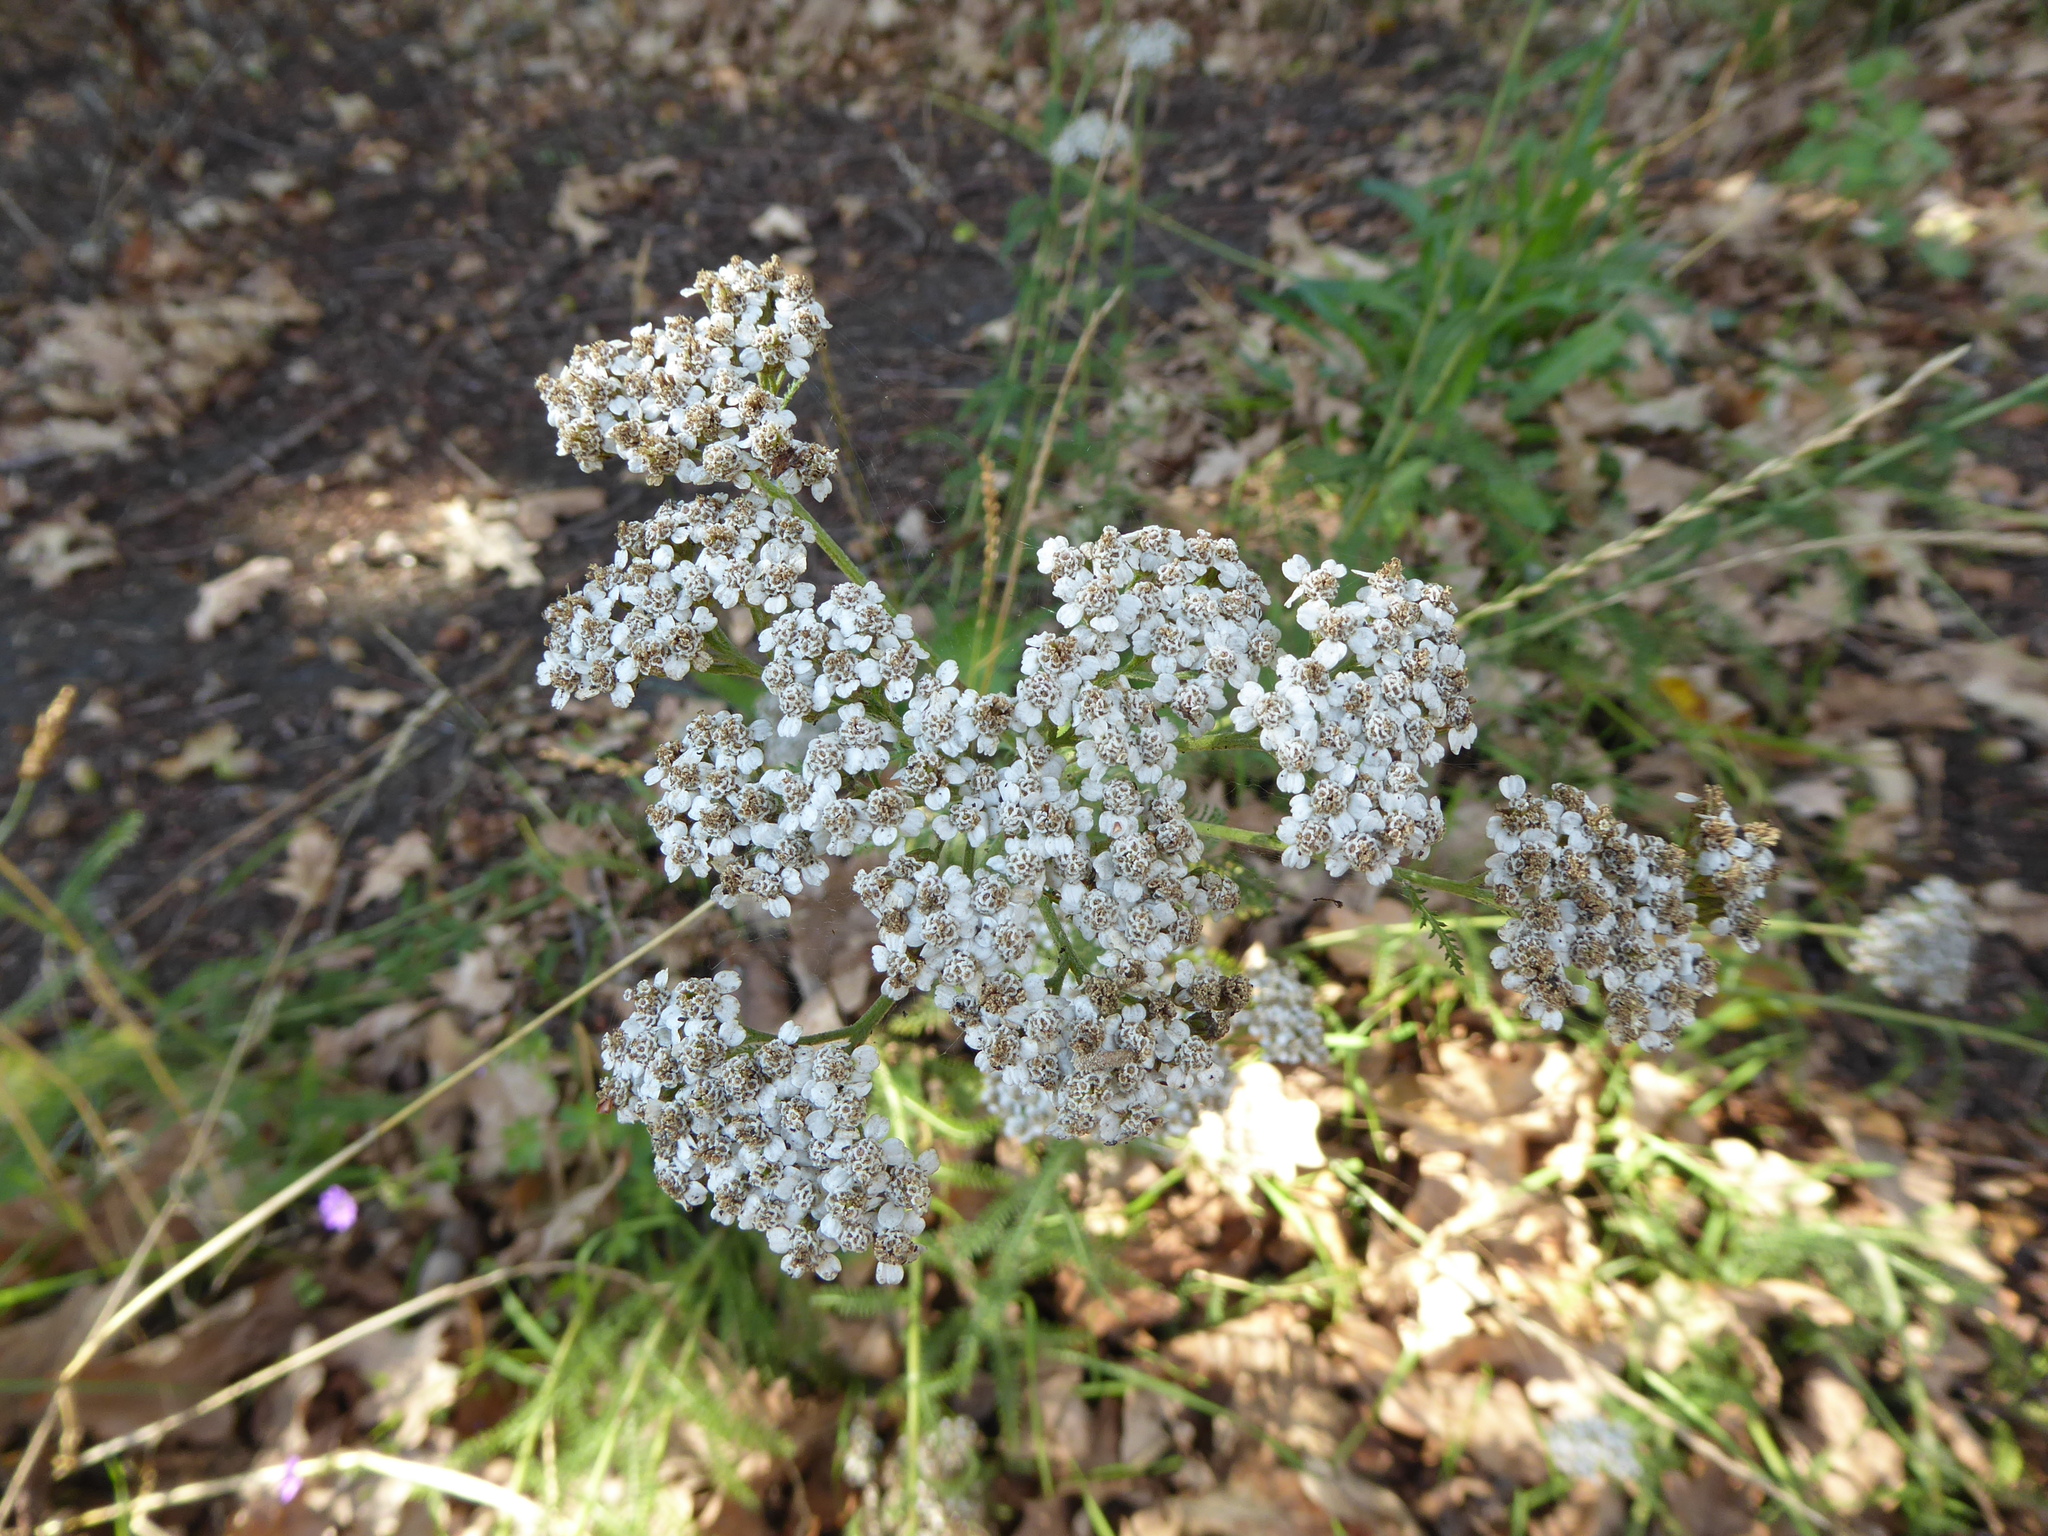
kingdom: Plantae
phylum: Tracheophyta
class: Magnoliopsida
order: Asterales
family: Asteraceae
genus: Achillea
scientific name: Achillea millefolium
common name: Yarrow
